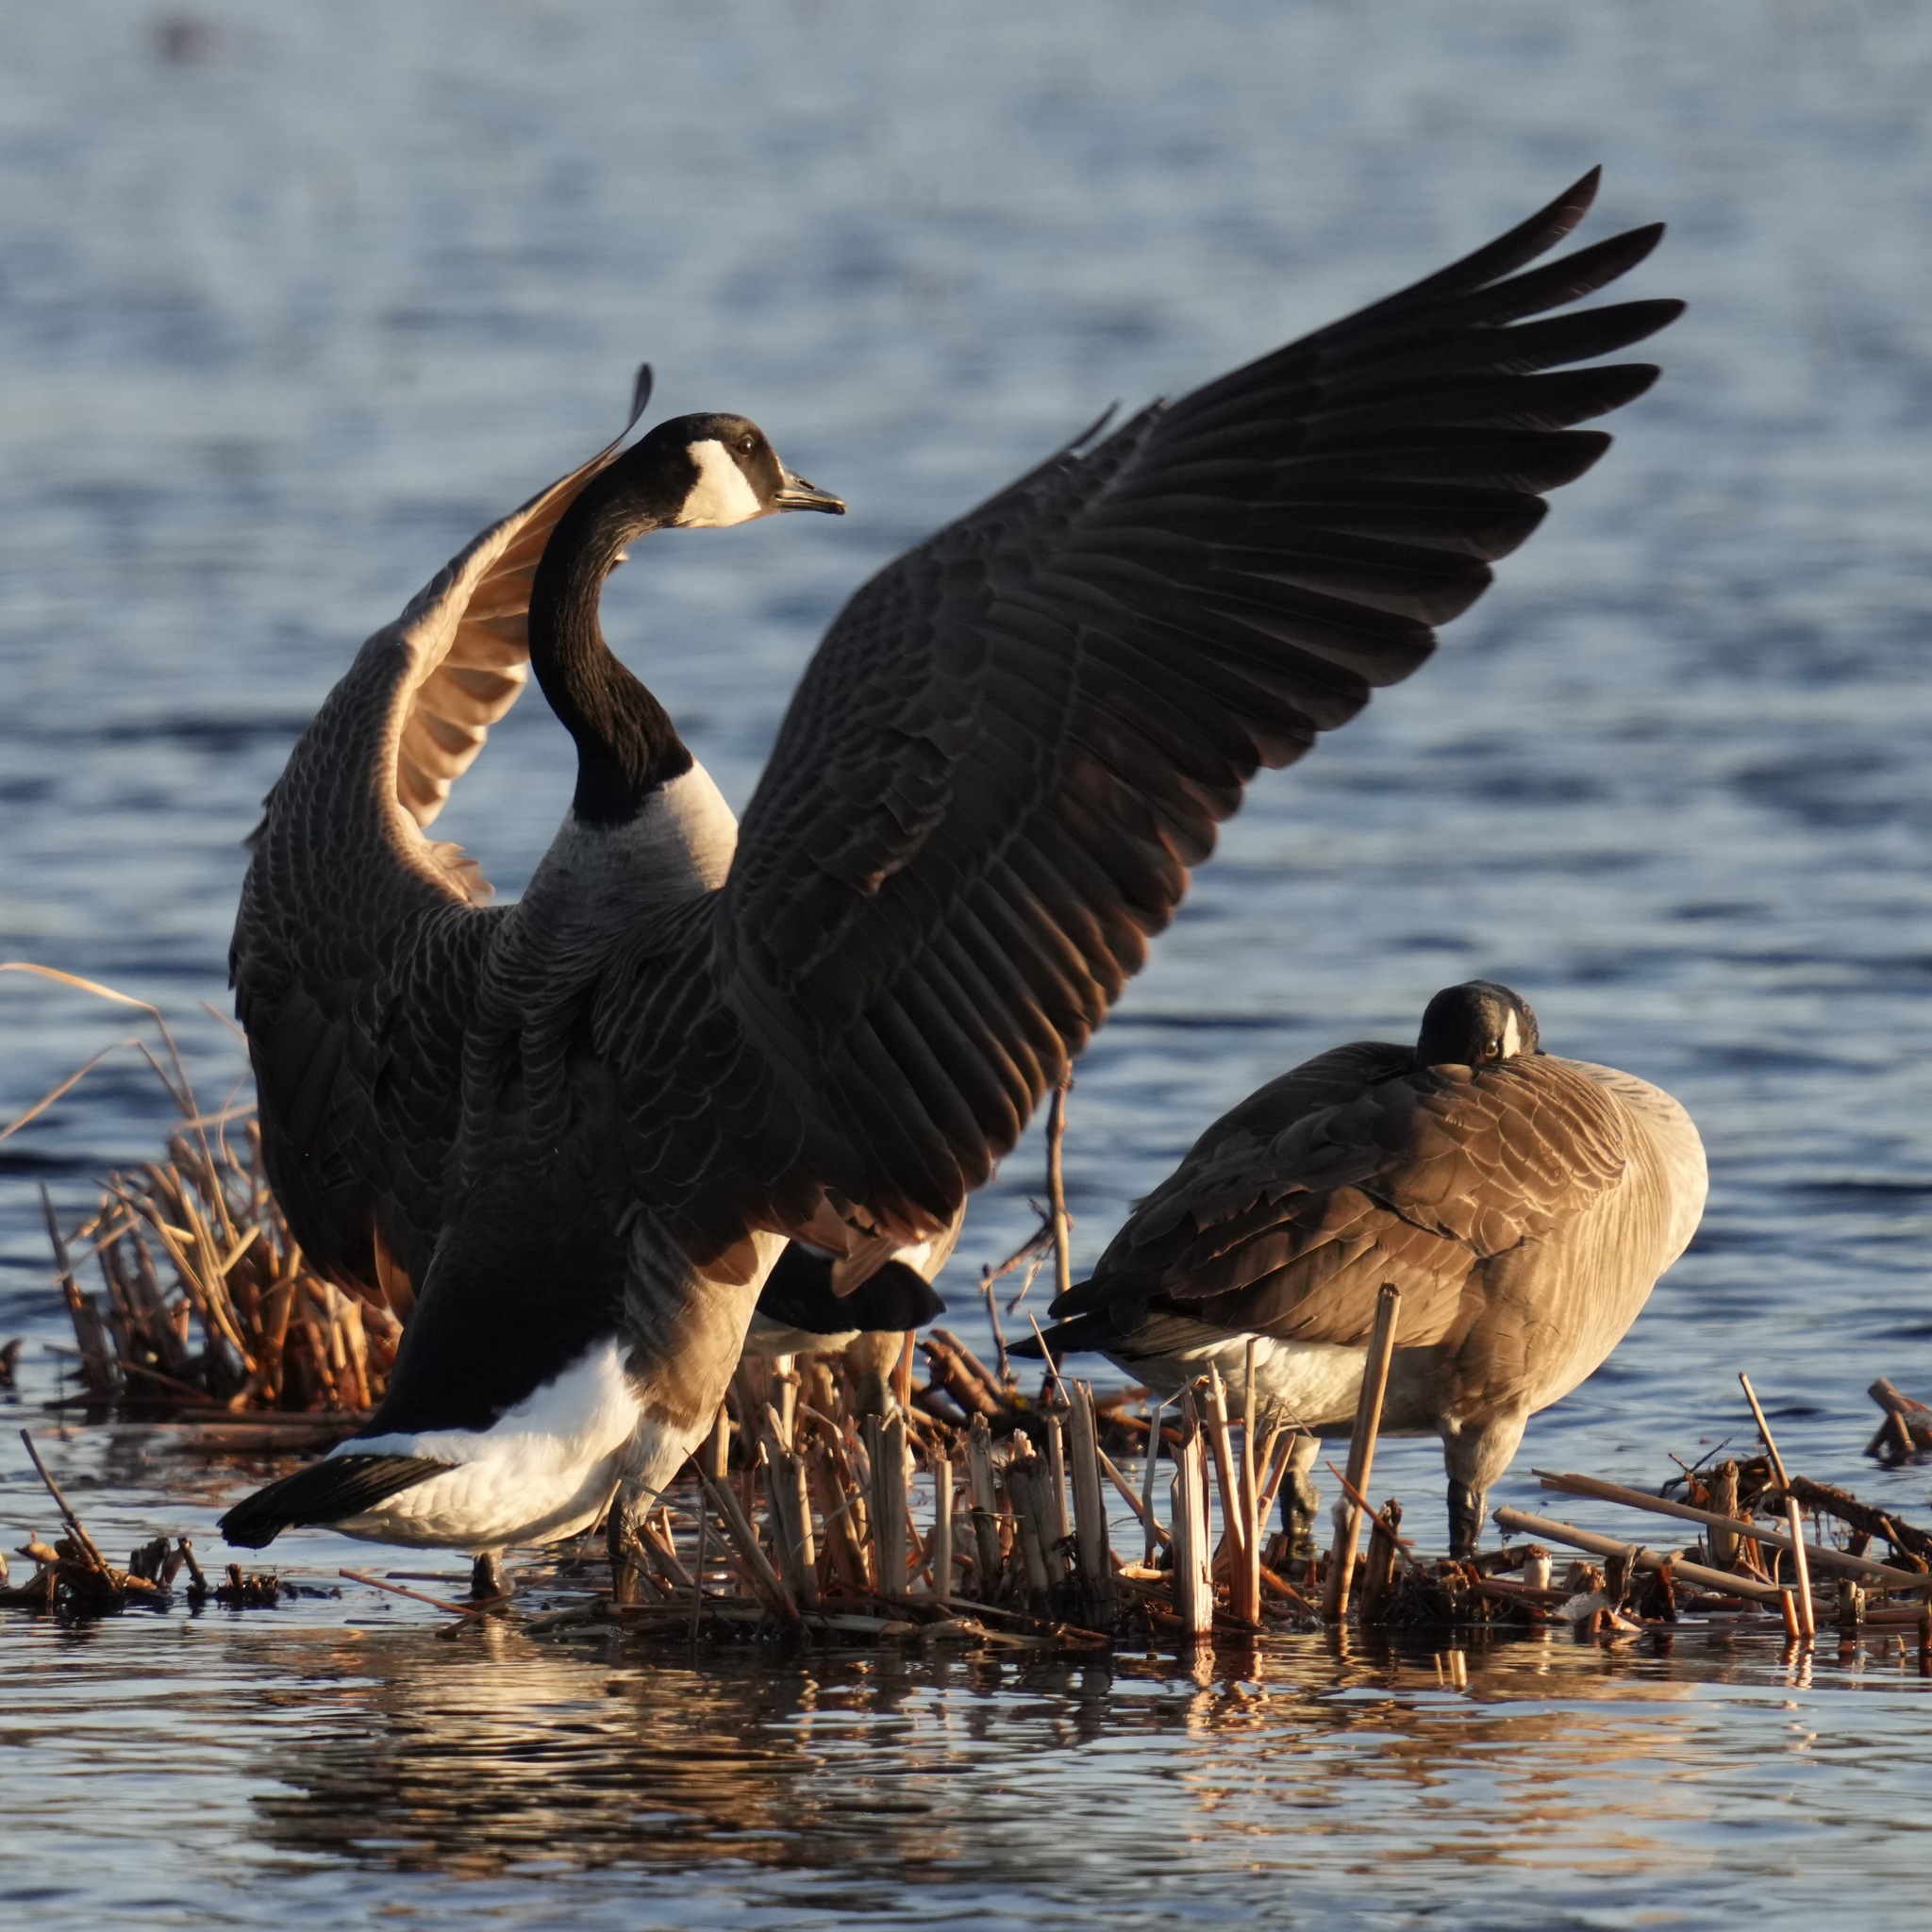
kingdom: Animalia
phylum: Chordata
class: Aves
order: Anseriformes
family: Anatidae
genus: Branta
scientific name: Branta canadensis
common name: Canada goose
